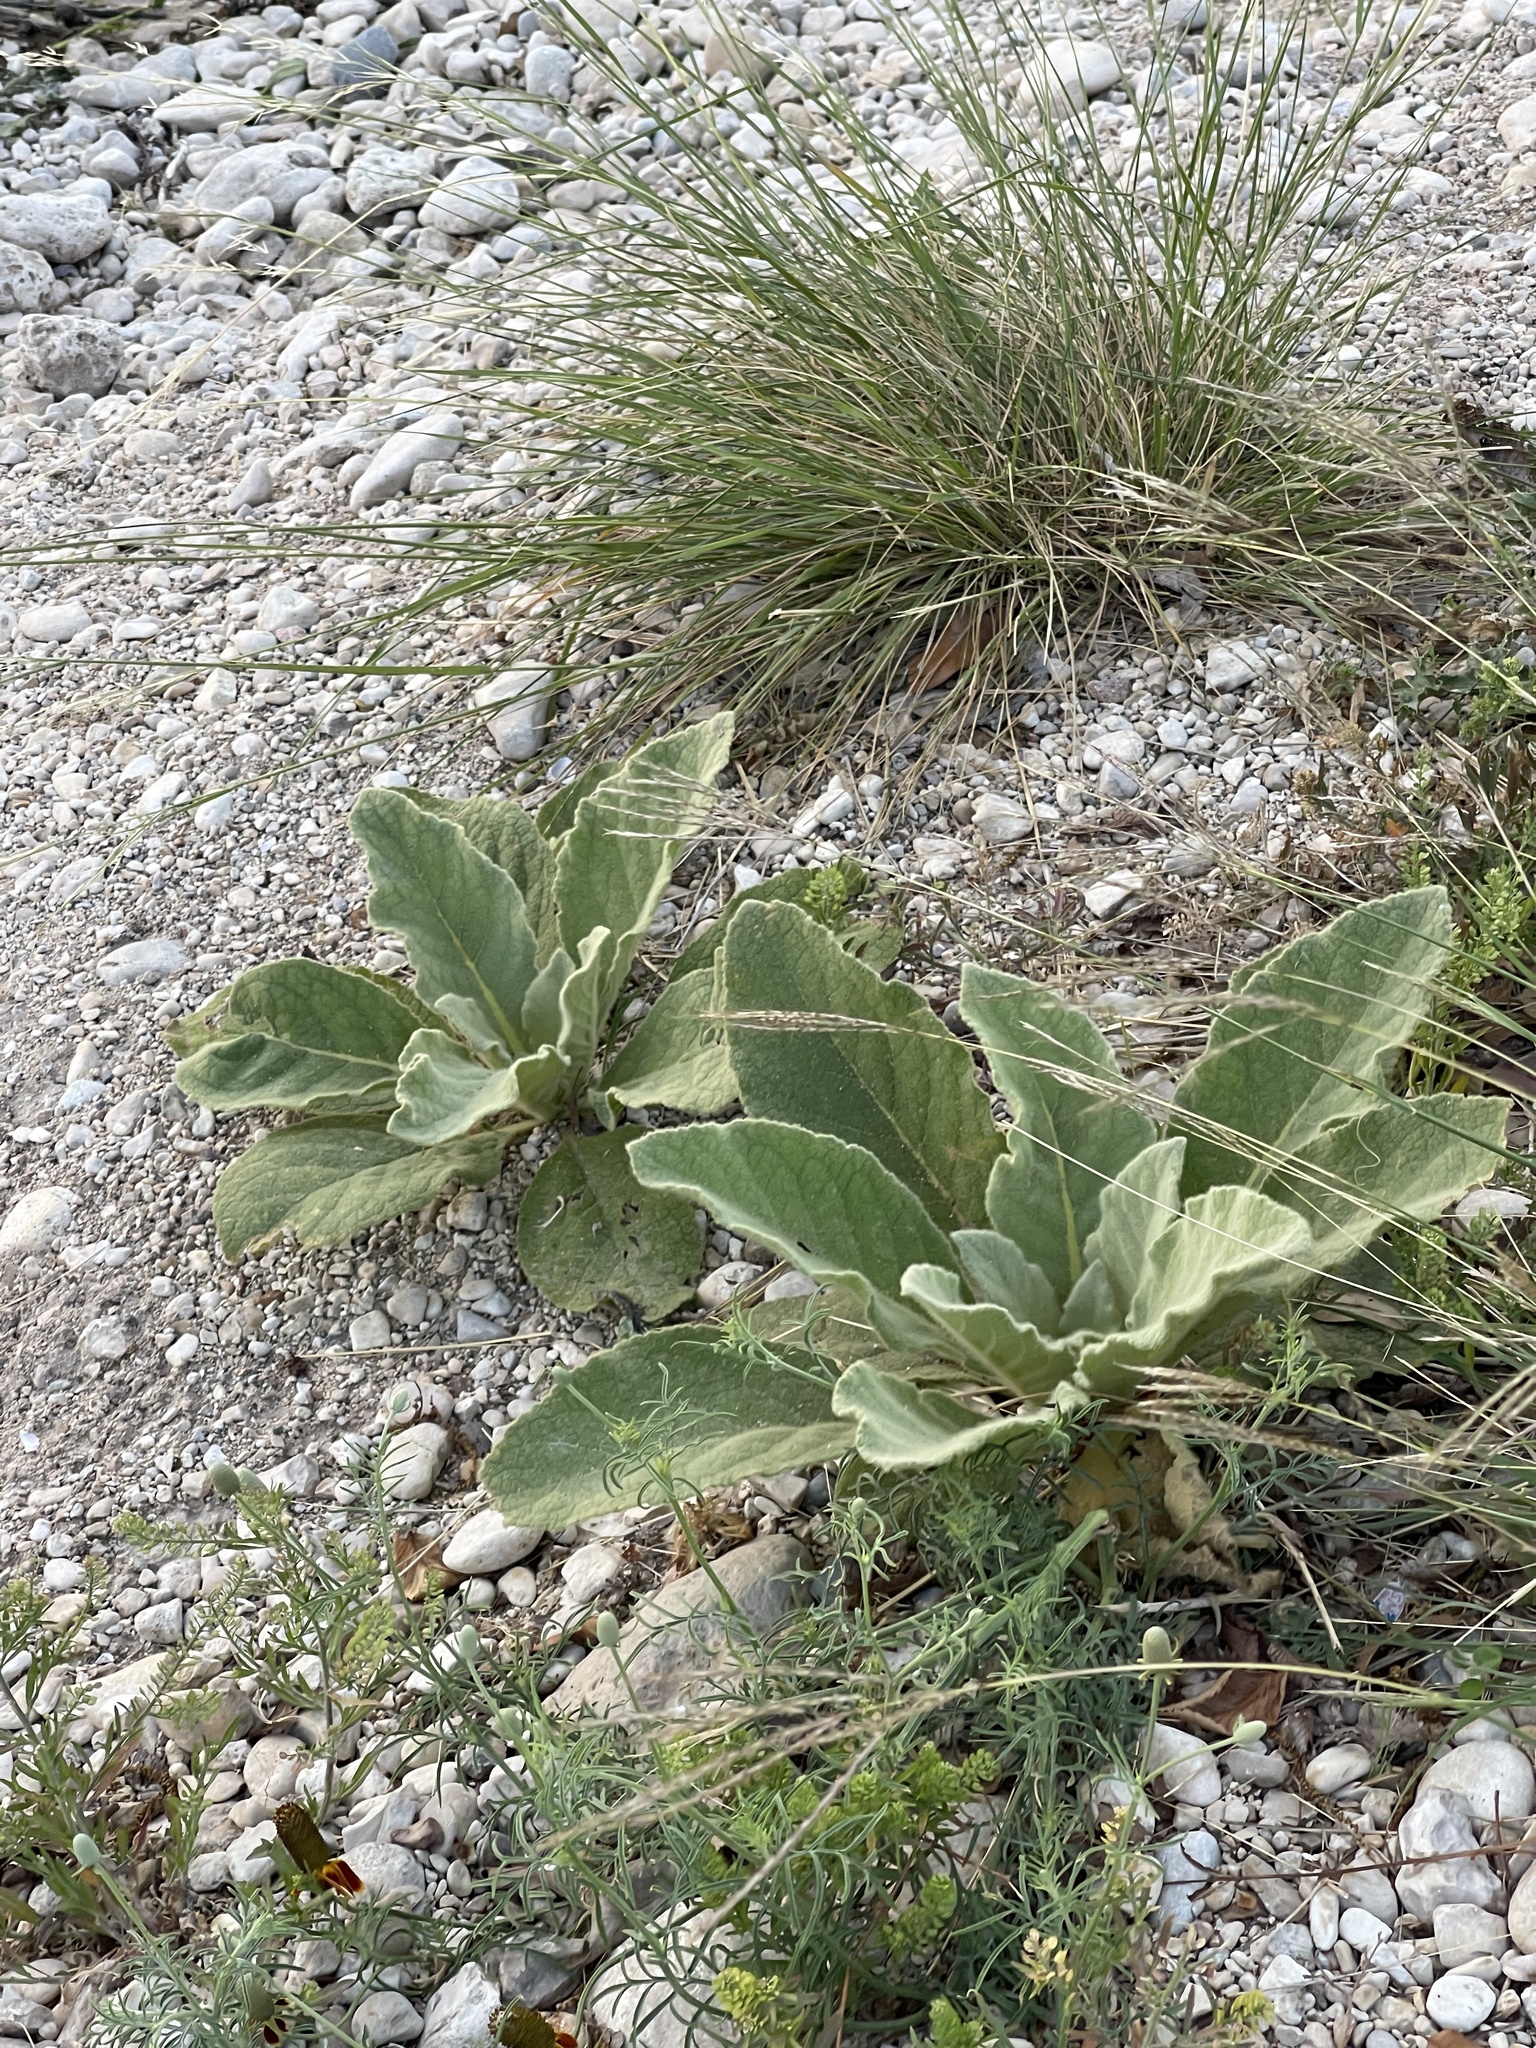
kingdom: Plantae
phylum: Tracheophyta
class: Magnoliopsida
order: Lamiales
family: Scrophulariaceae
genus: Verbascum
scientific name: Verbascum thapsus
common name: Common mullein
